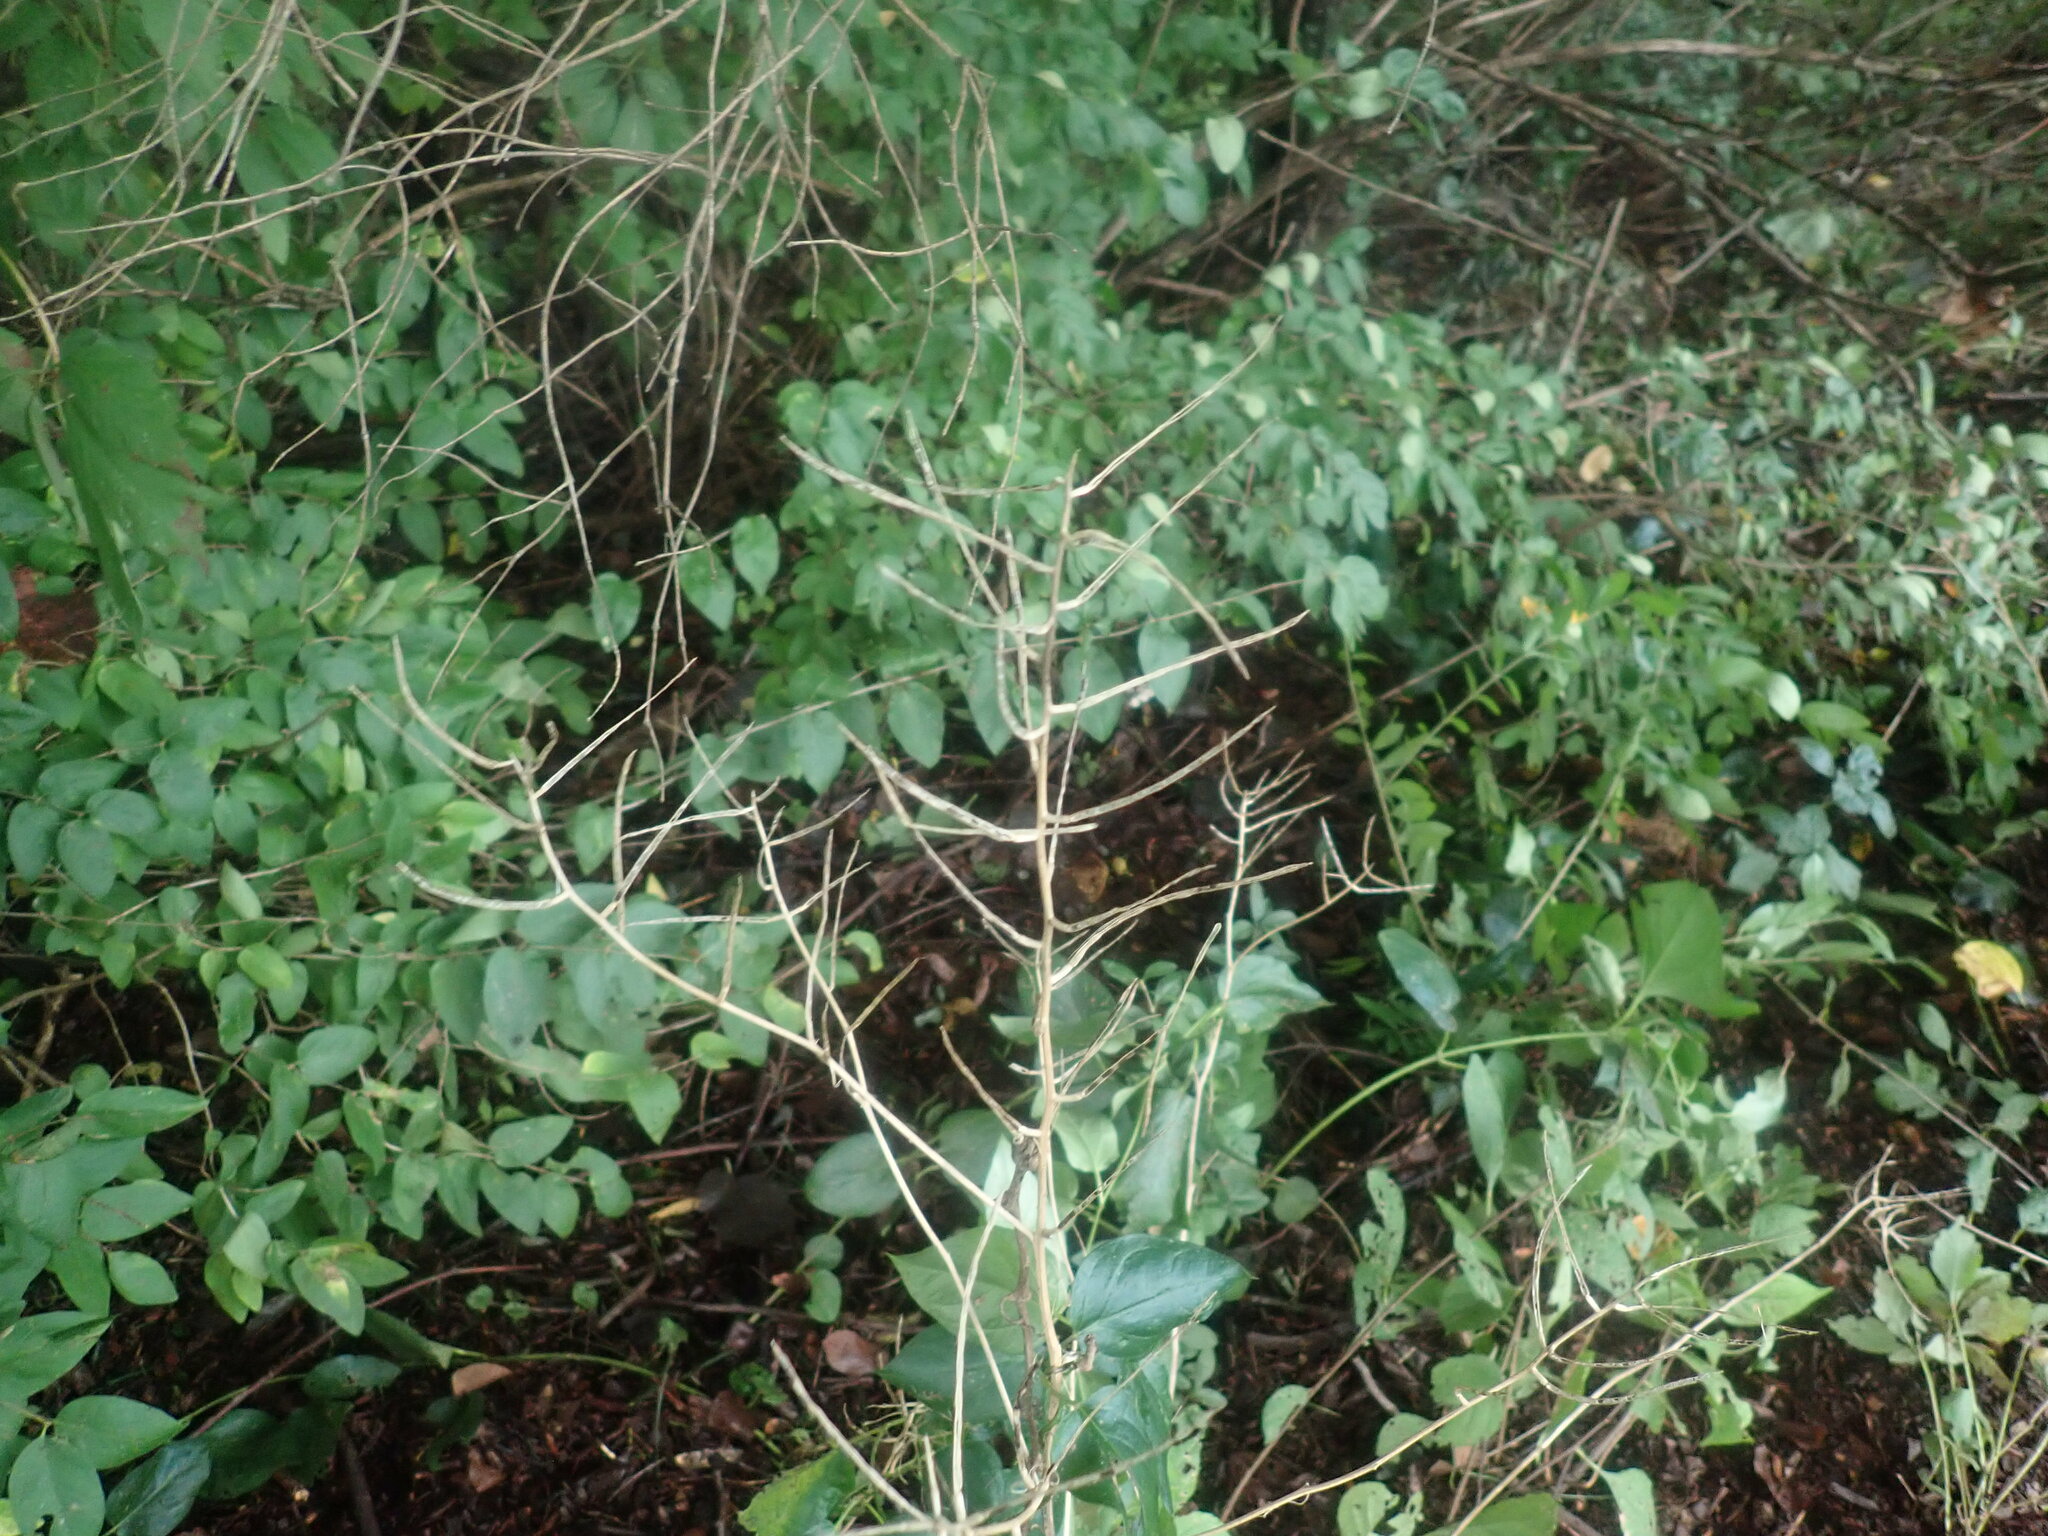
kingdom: Plantae
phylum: Tracheophyta
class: Magnoliopsida
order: Brassicales
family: Brassicaceae
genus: Alliaria
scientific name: Alliaria petiolata
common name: Garlic mustard
